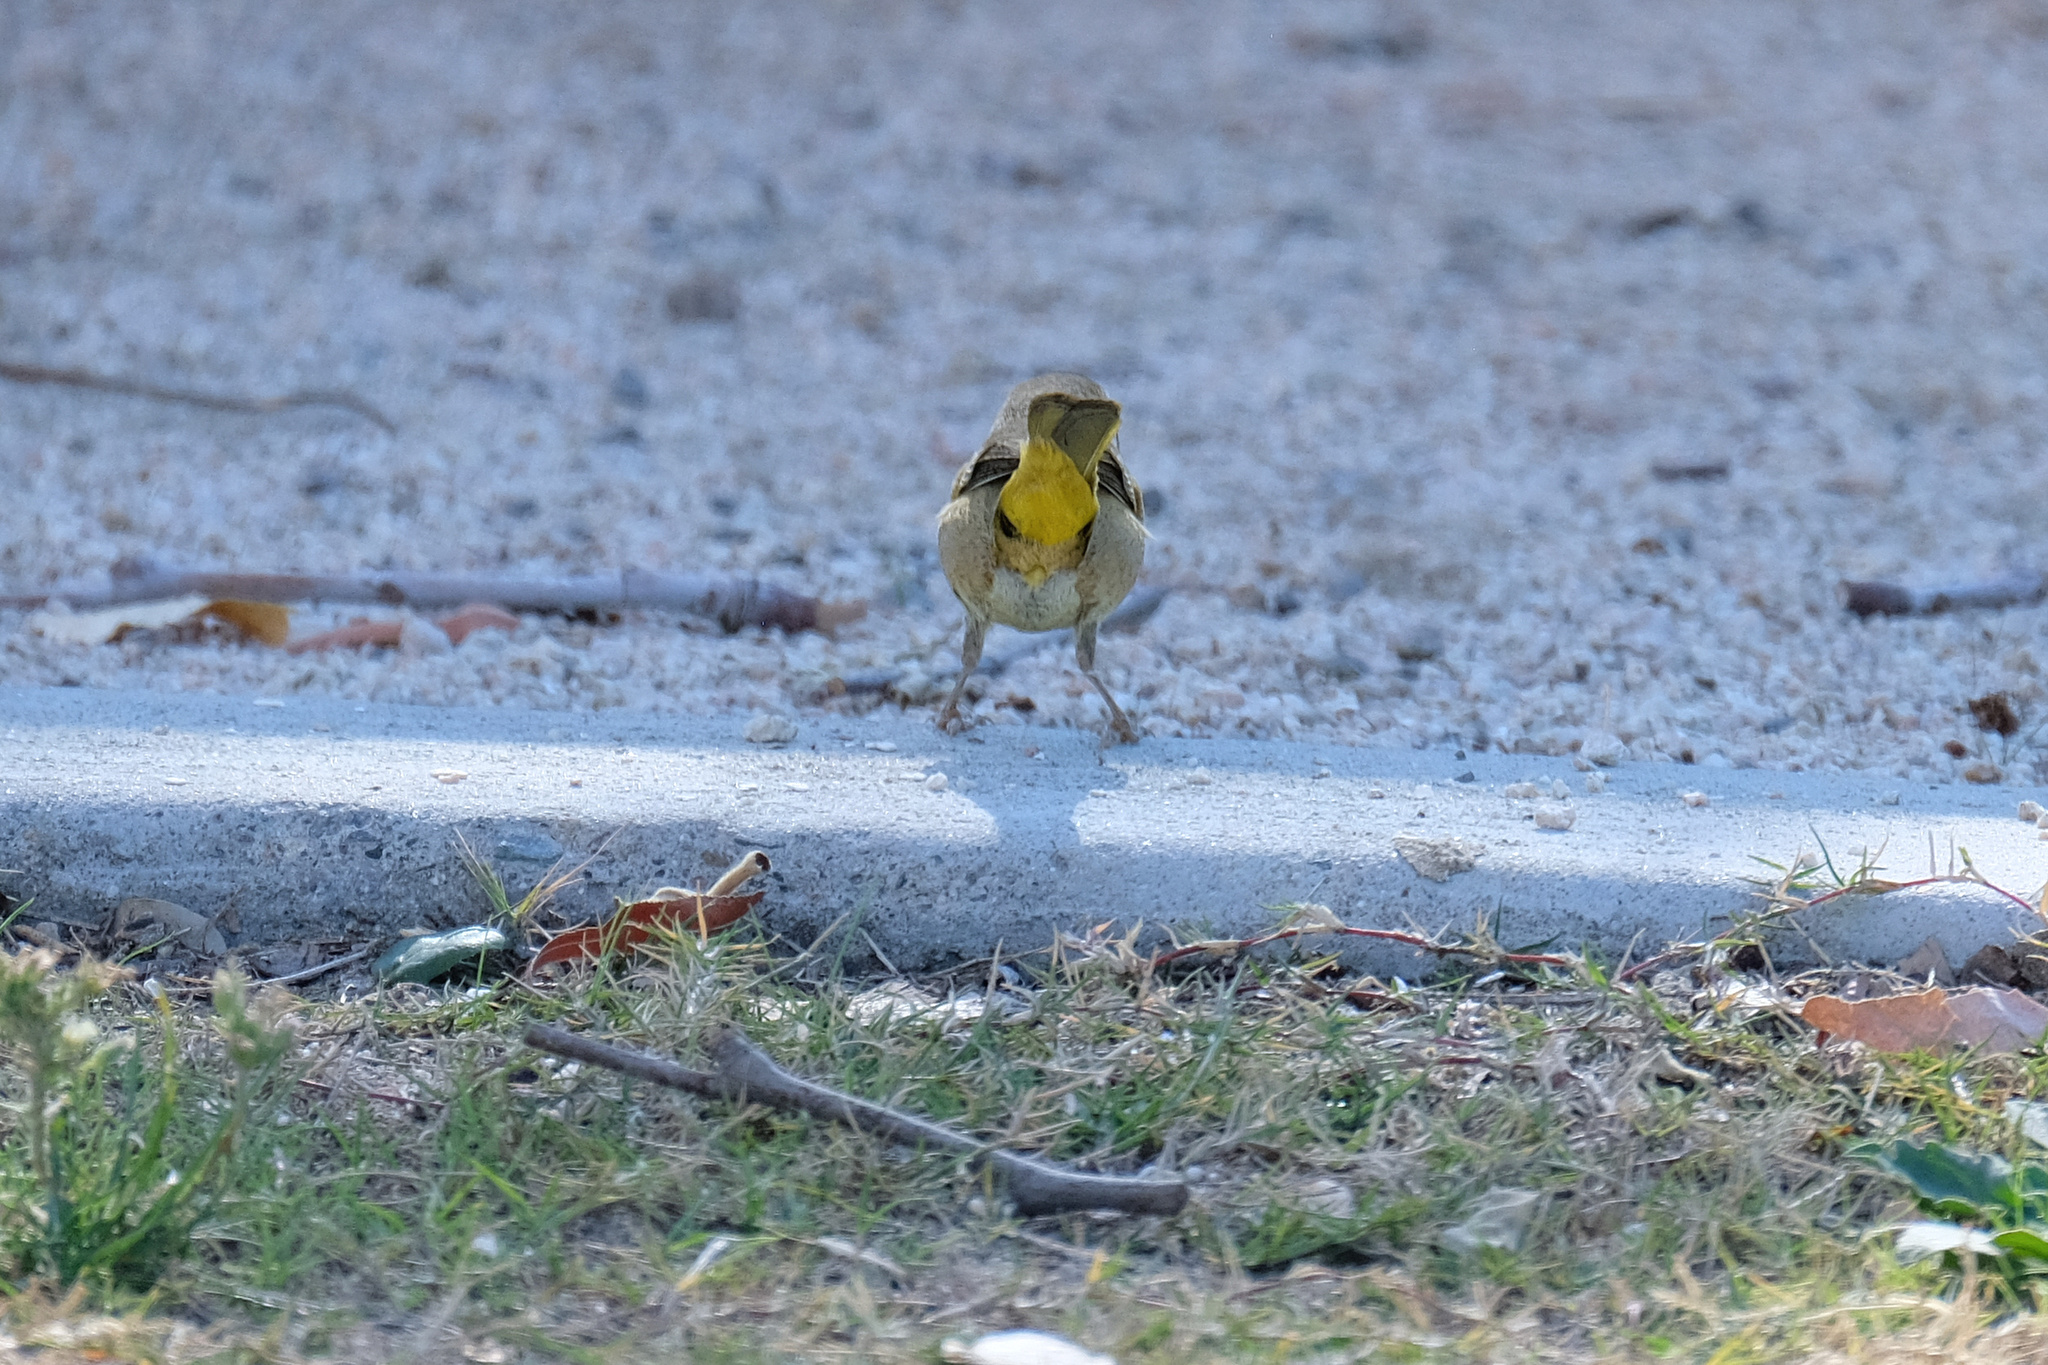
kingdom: Animalia
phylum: Chordata
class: Aves
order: Passeriformes
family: Parulidae
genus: Geothlypis
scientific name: Geothlypis trichas
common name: Common yellowthroat
